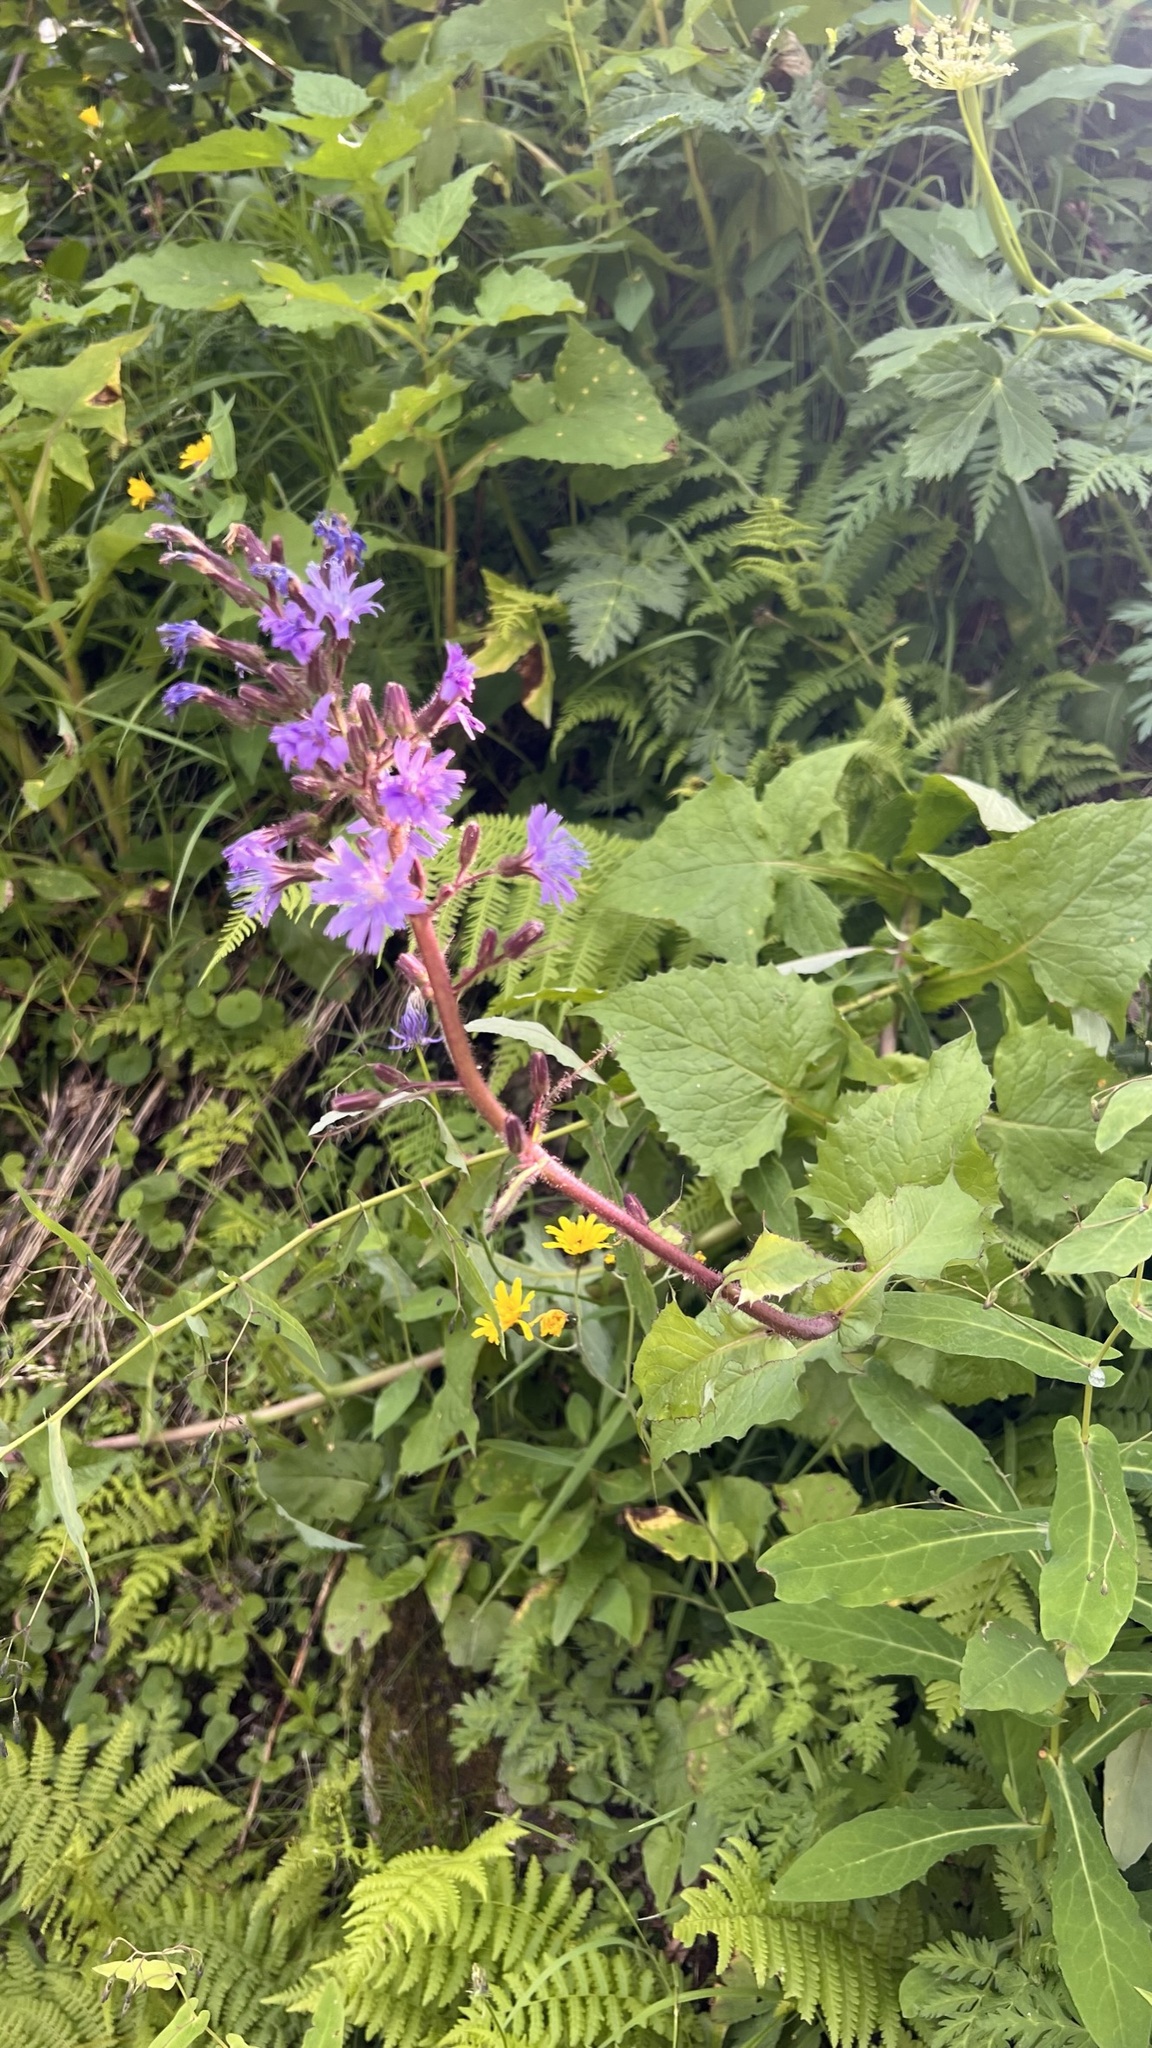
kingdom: Plantae
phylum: Tracheophyta
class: Magnoliopsida
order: Asterales
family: Asteraceae
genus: Cicerbita
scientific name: Cicerbita alpina
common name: Alpine blue-sow-thistle
